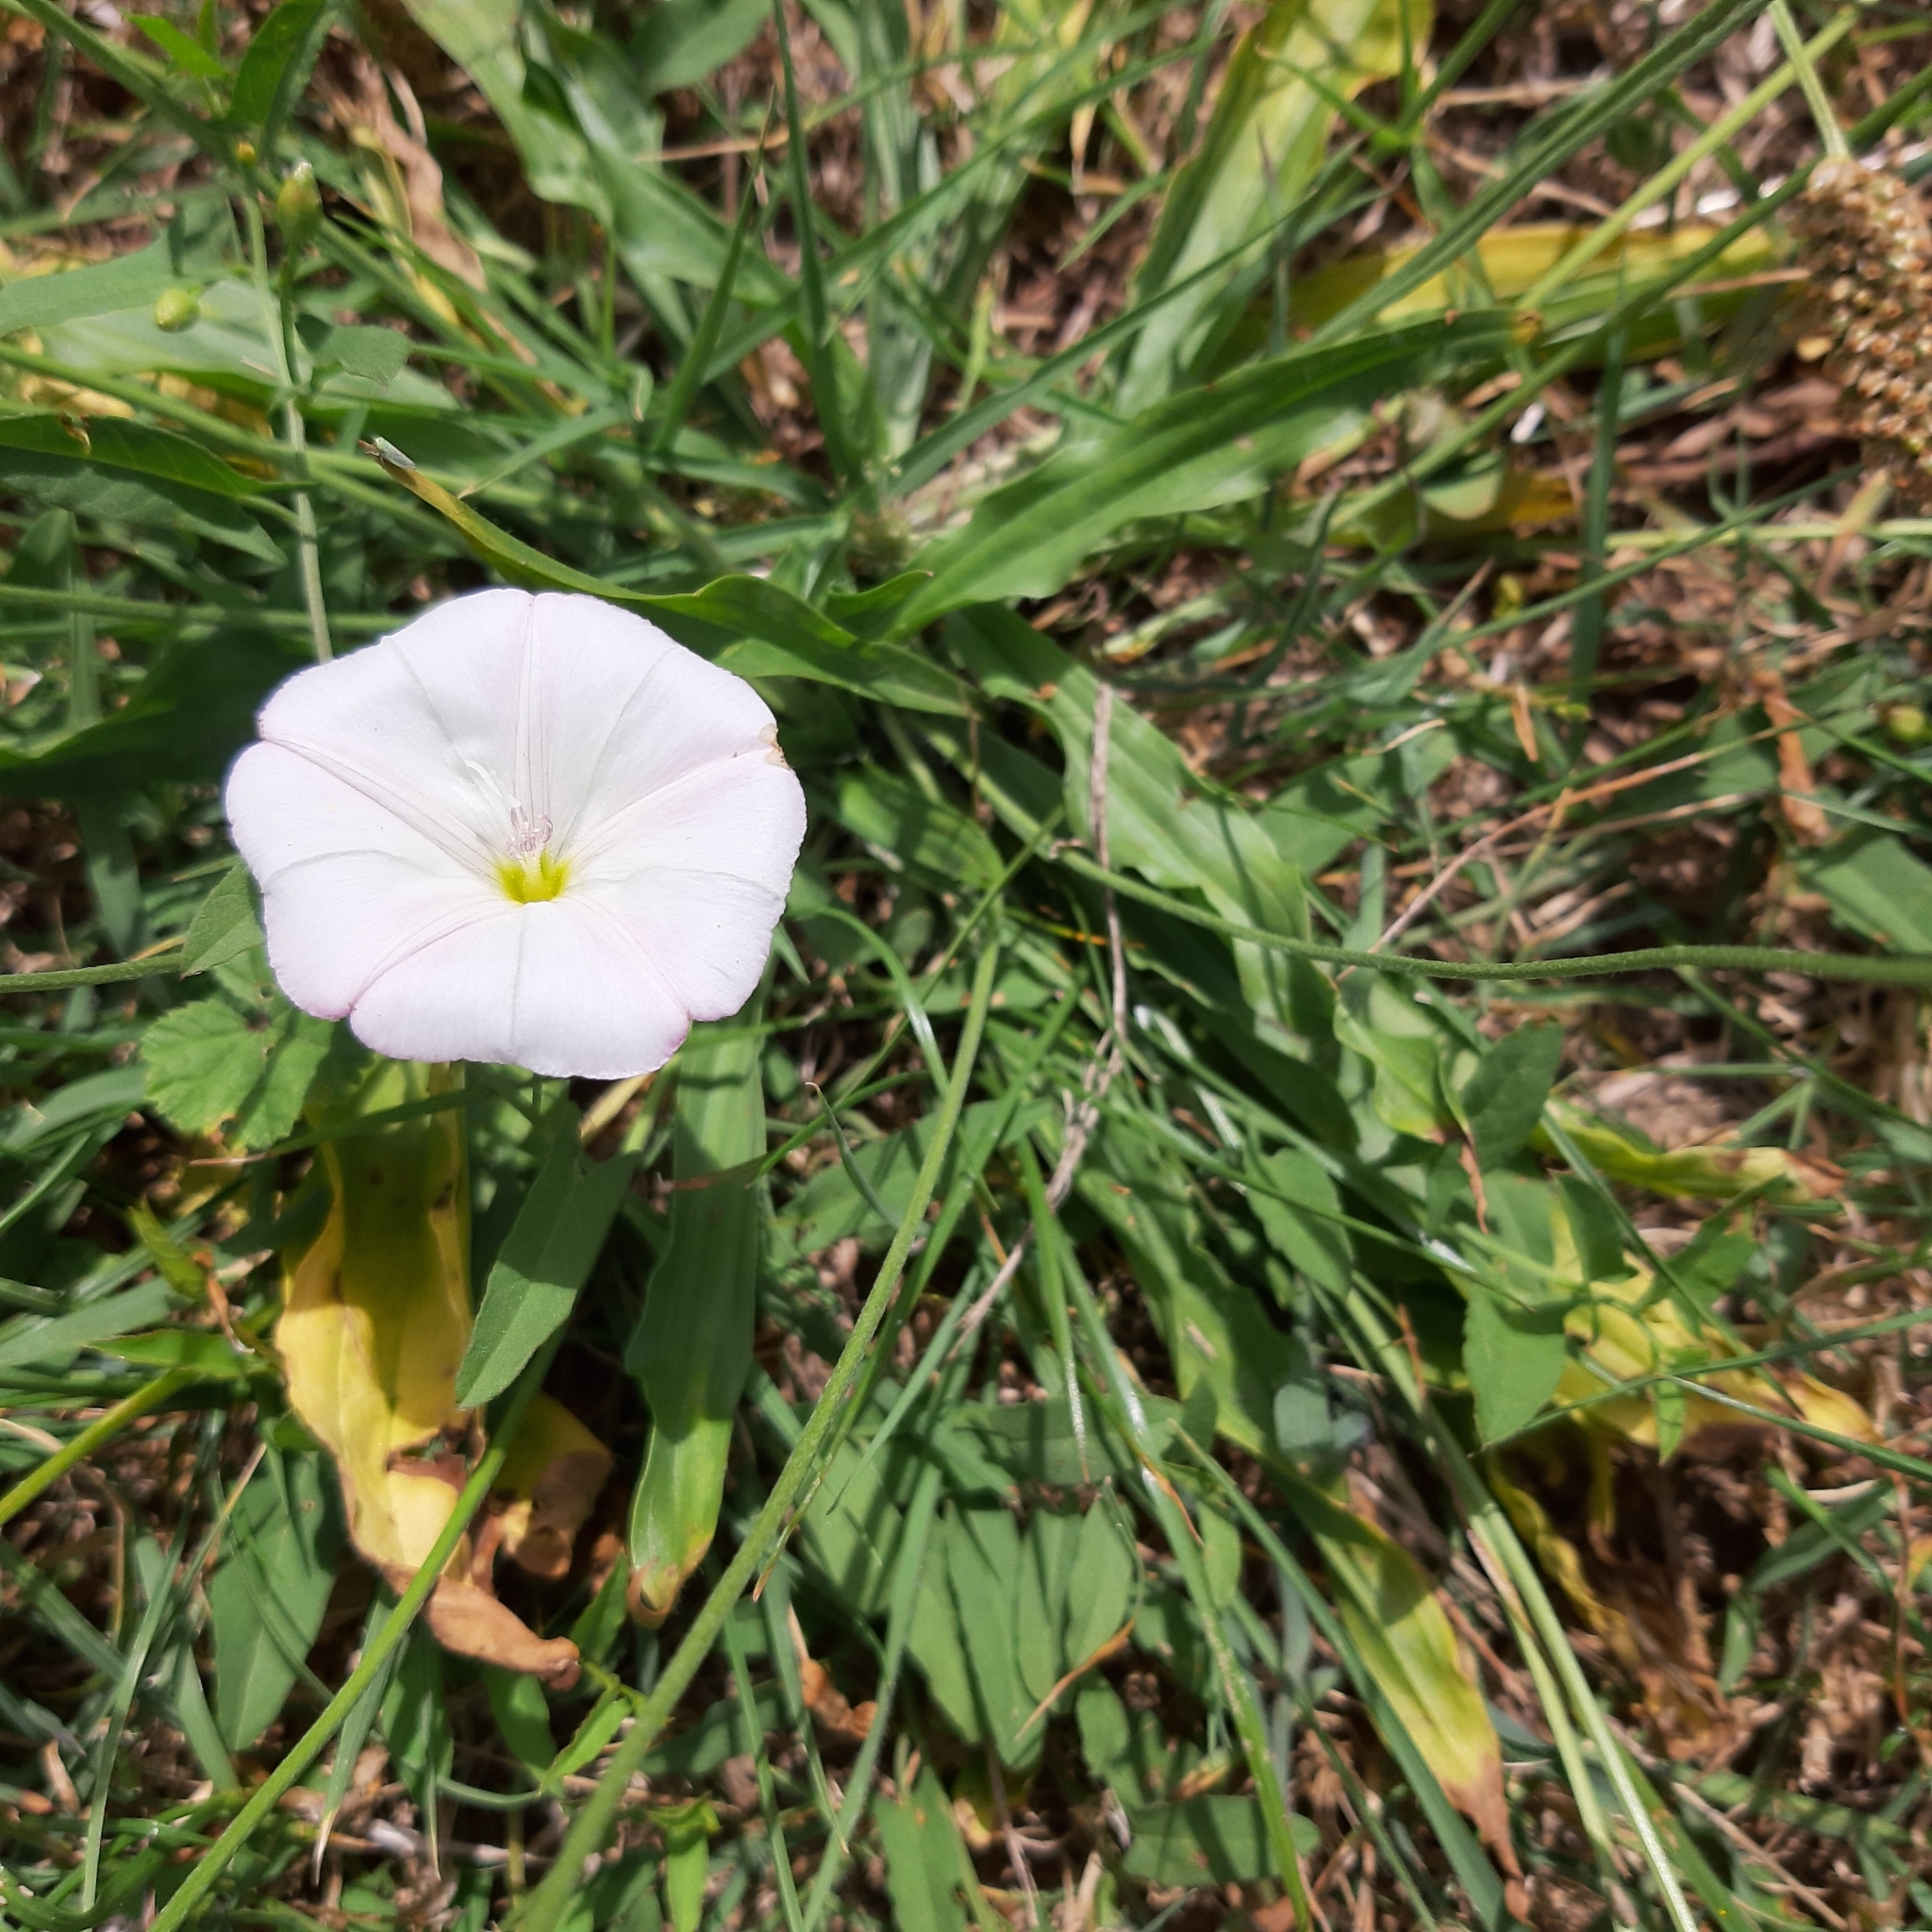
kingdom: Plantae
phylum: Tracheophyta
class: Magnoliopsida
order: Solanales
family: Convolvulaceae
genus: Convolvulus
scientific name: Convolvulus arvensis
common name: Field bindweed
